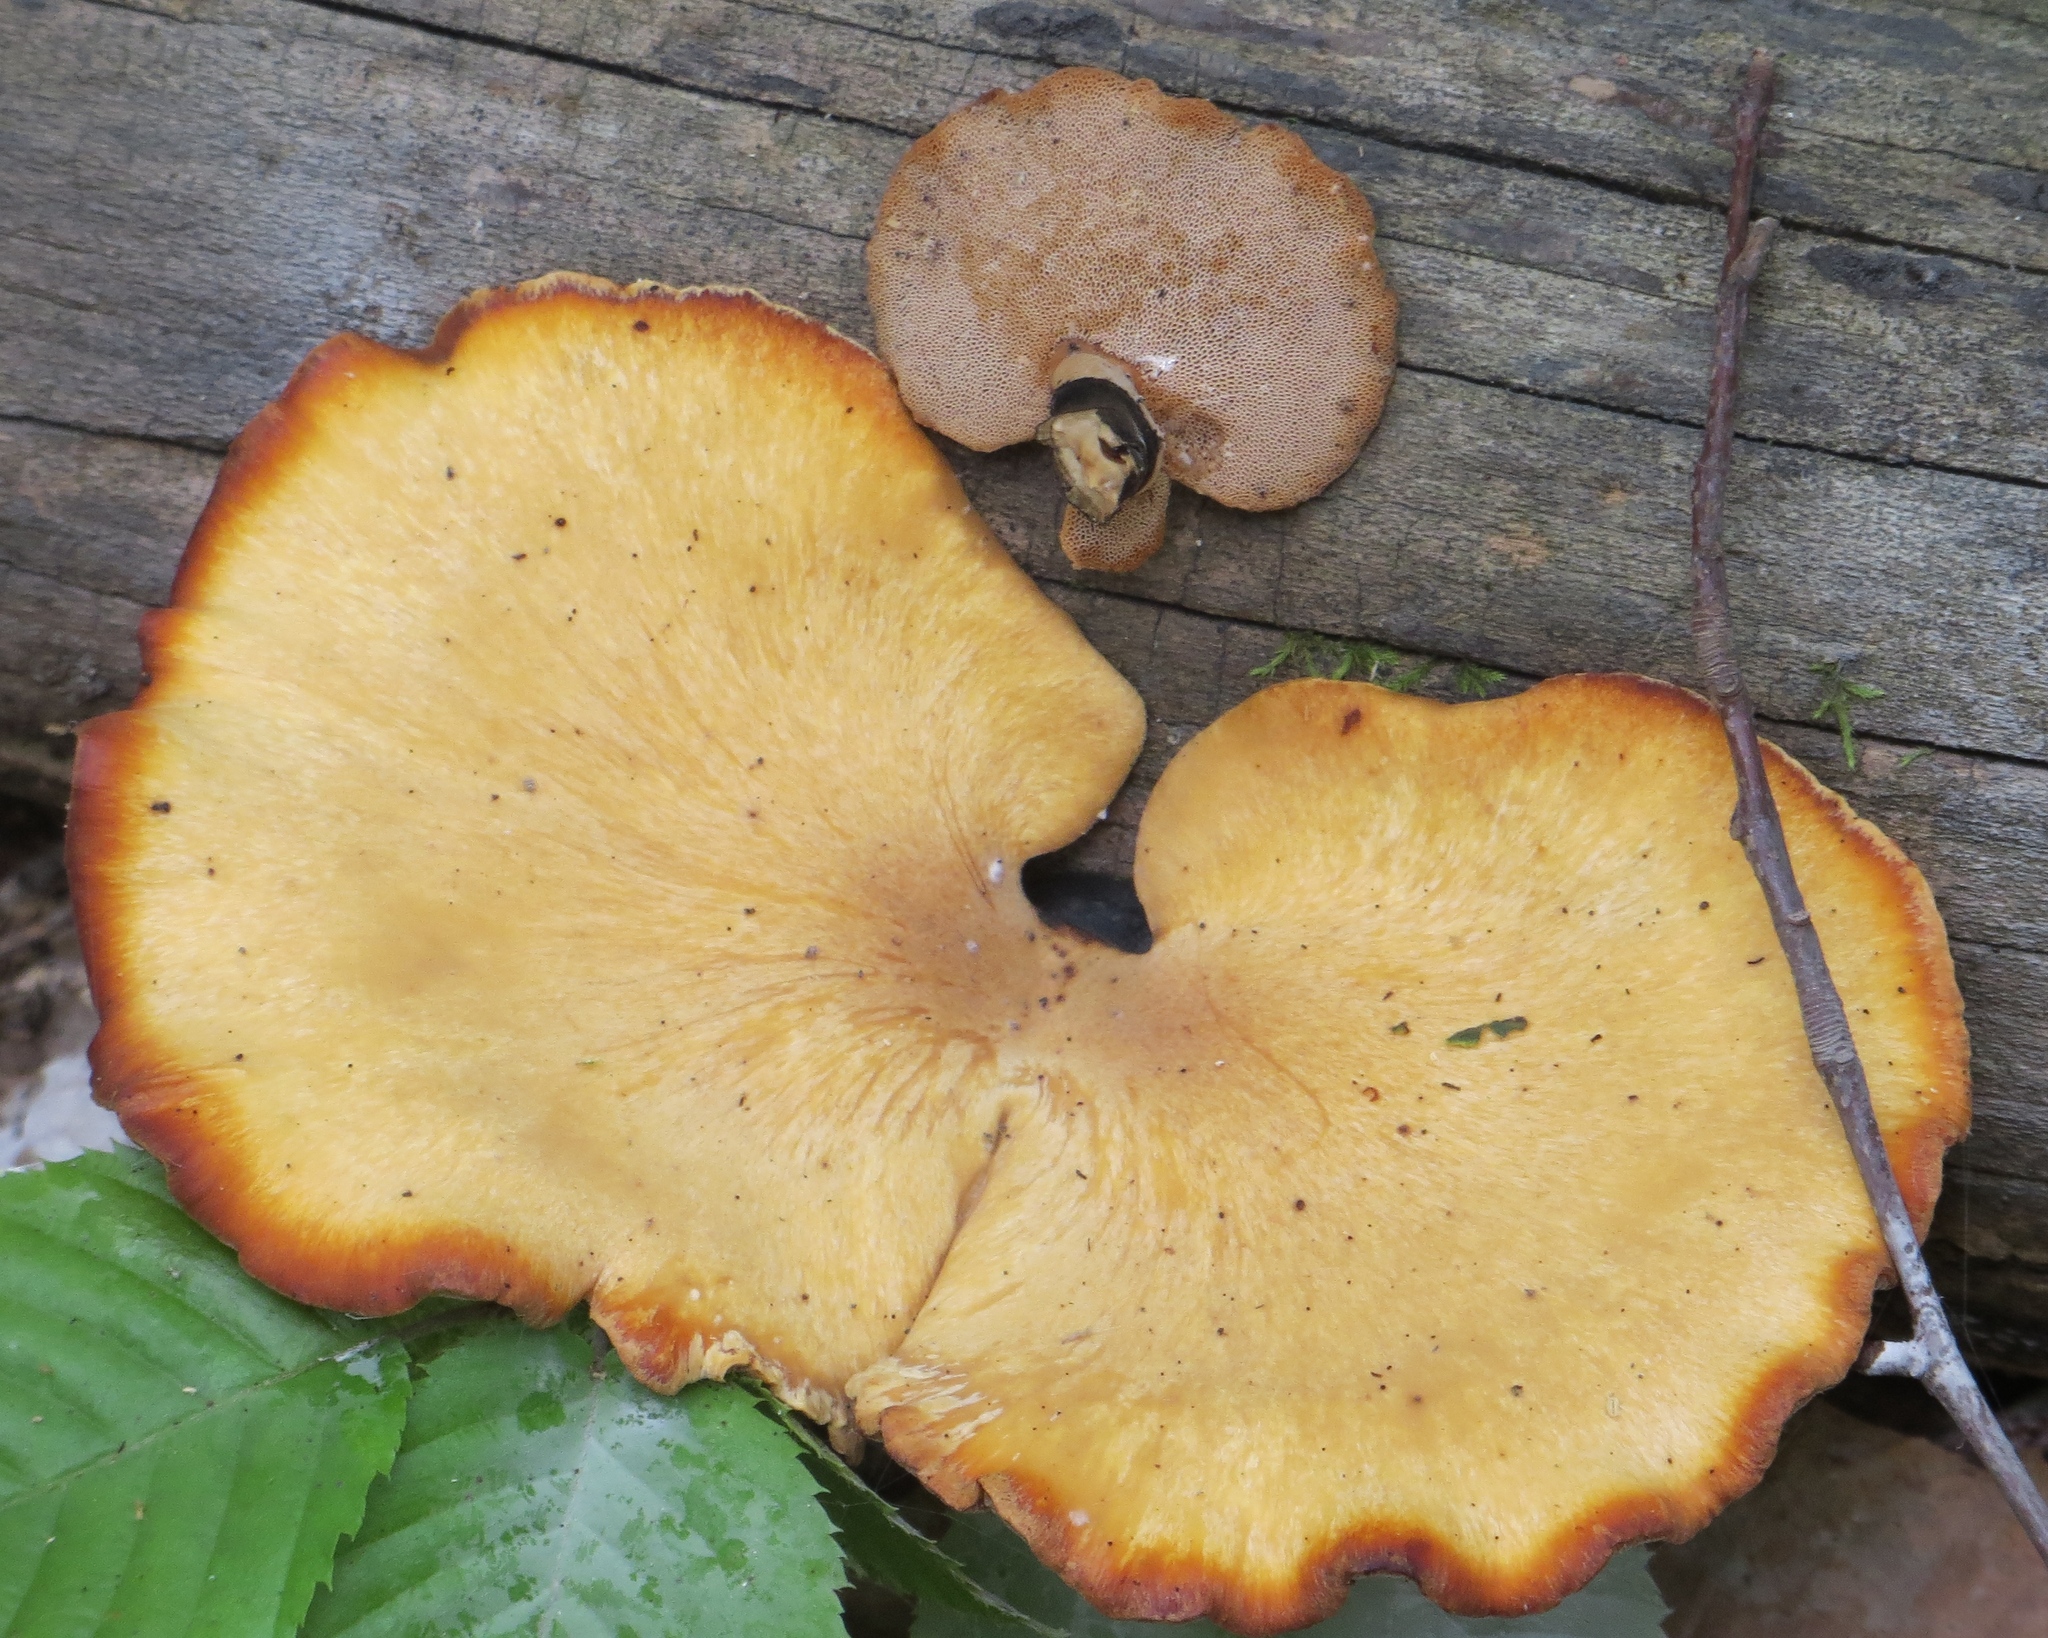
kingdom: Fungi
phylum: Basidiomycota
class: Agaricomycetes
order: Polyporales
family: Polyporaceae
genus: Cerioporus
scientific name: Cerioporus varius
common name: Elegant polypore
